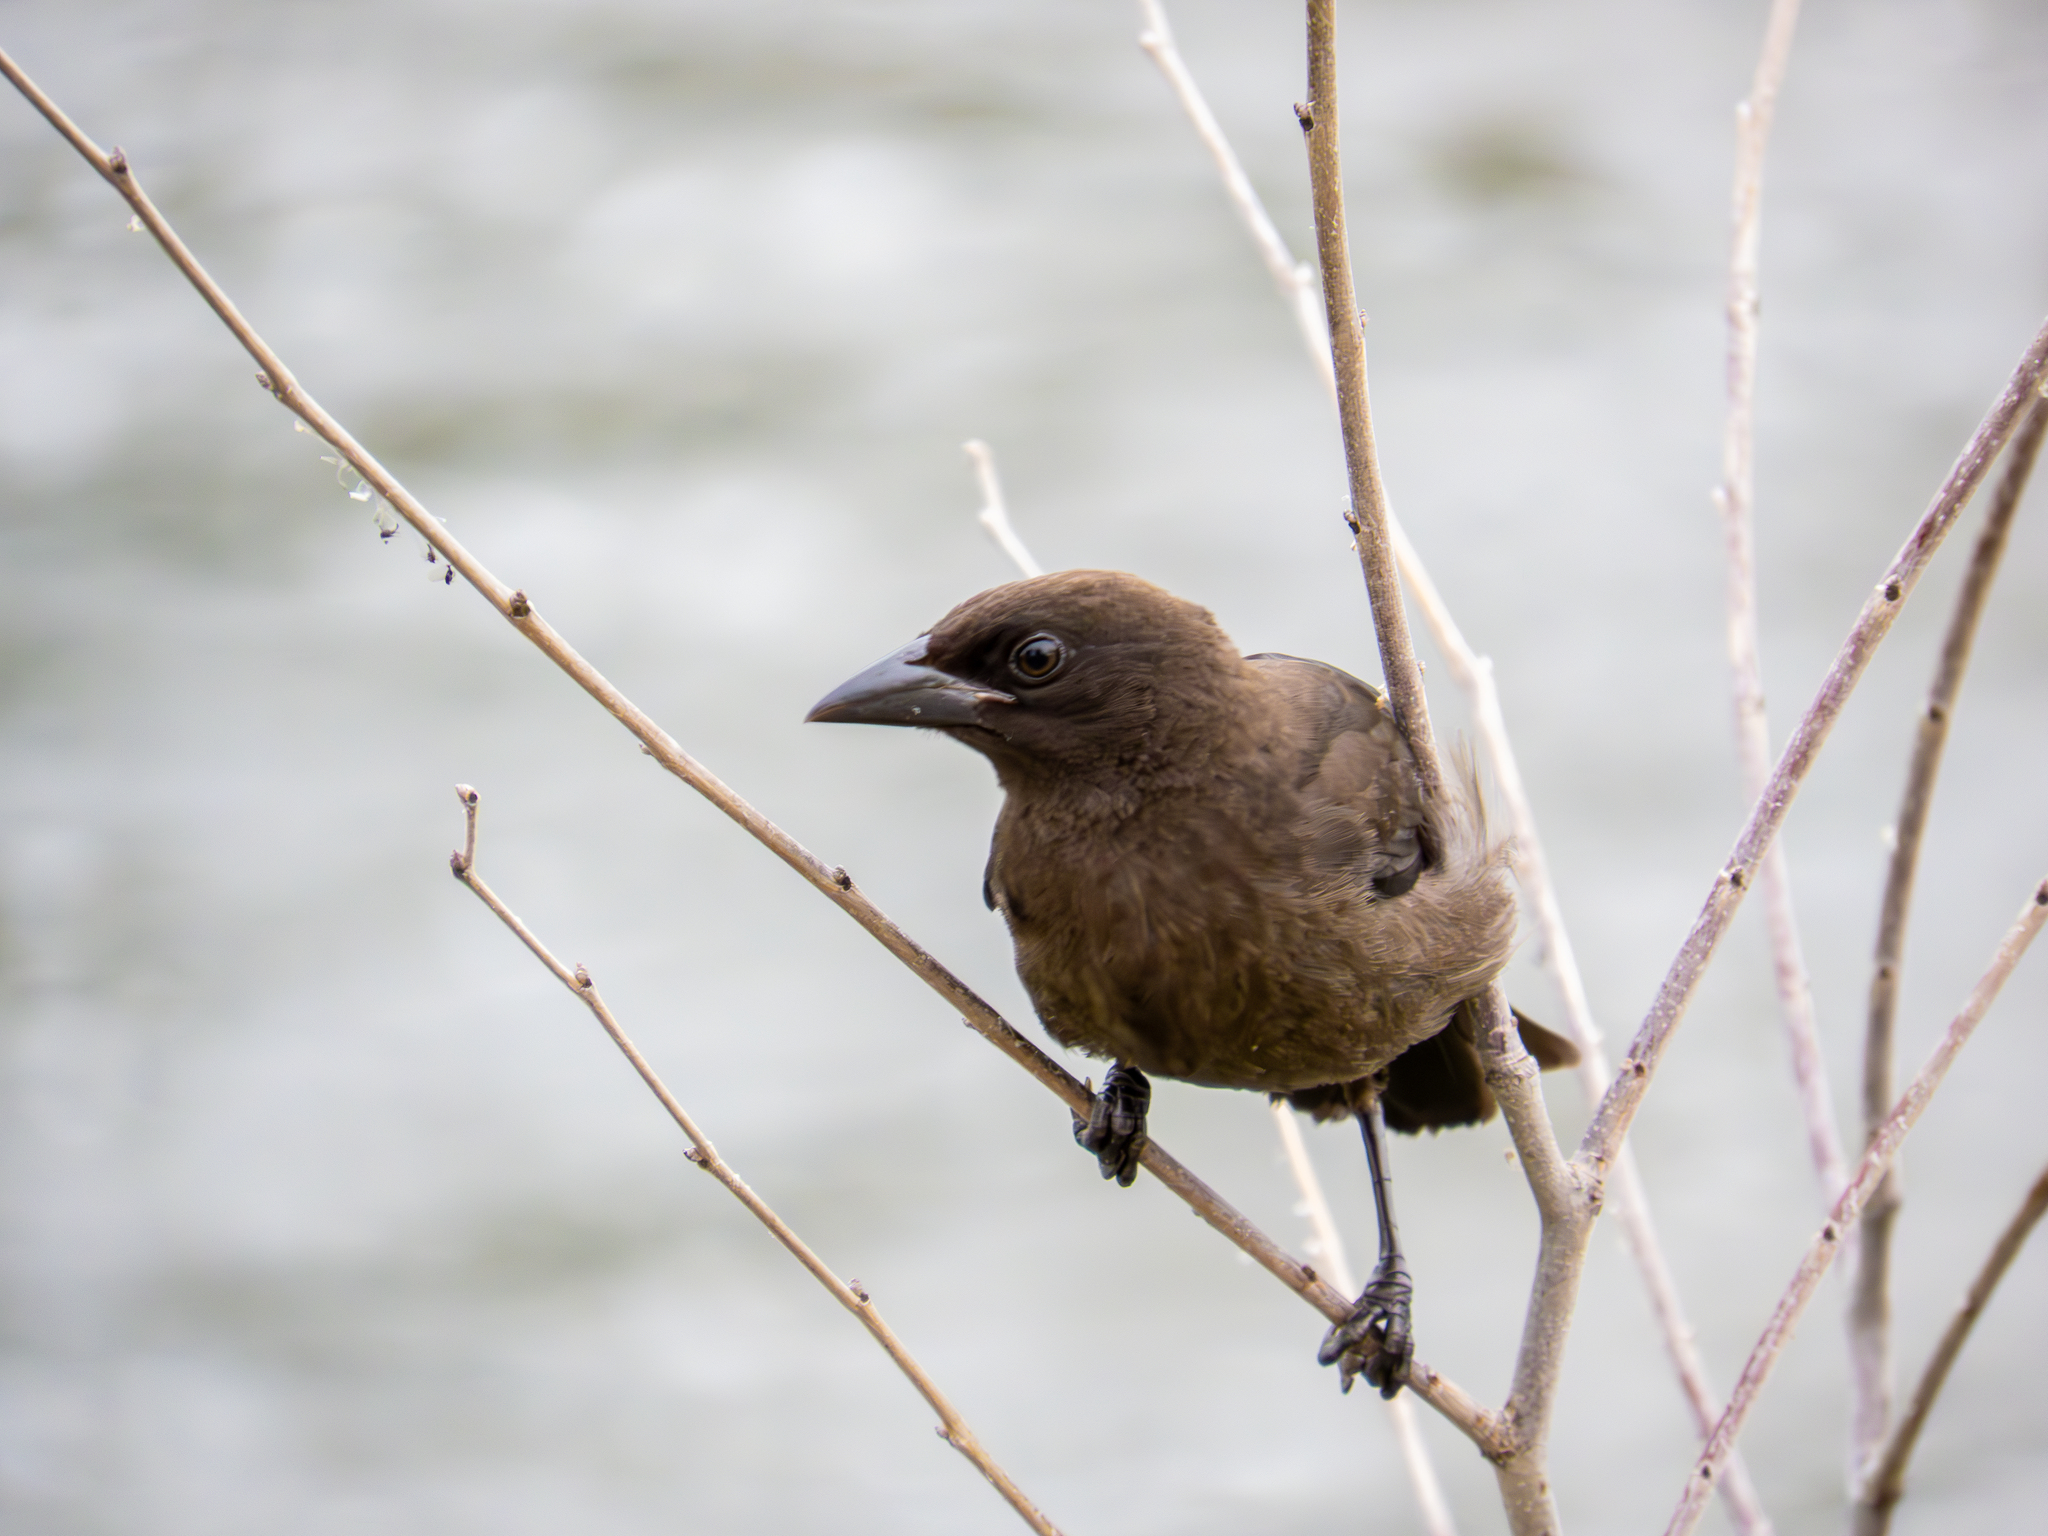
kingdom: Animalia
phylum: Chordata
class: Aves
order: Passeriformes
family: Icteridae
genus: Quiscalus
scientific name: Quiscalus quiscula
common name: Common grackle
